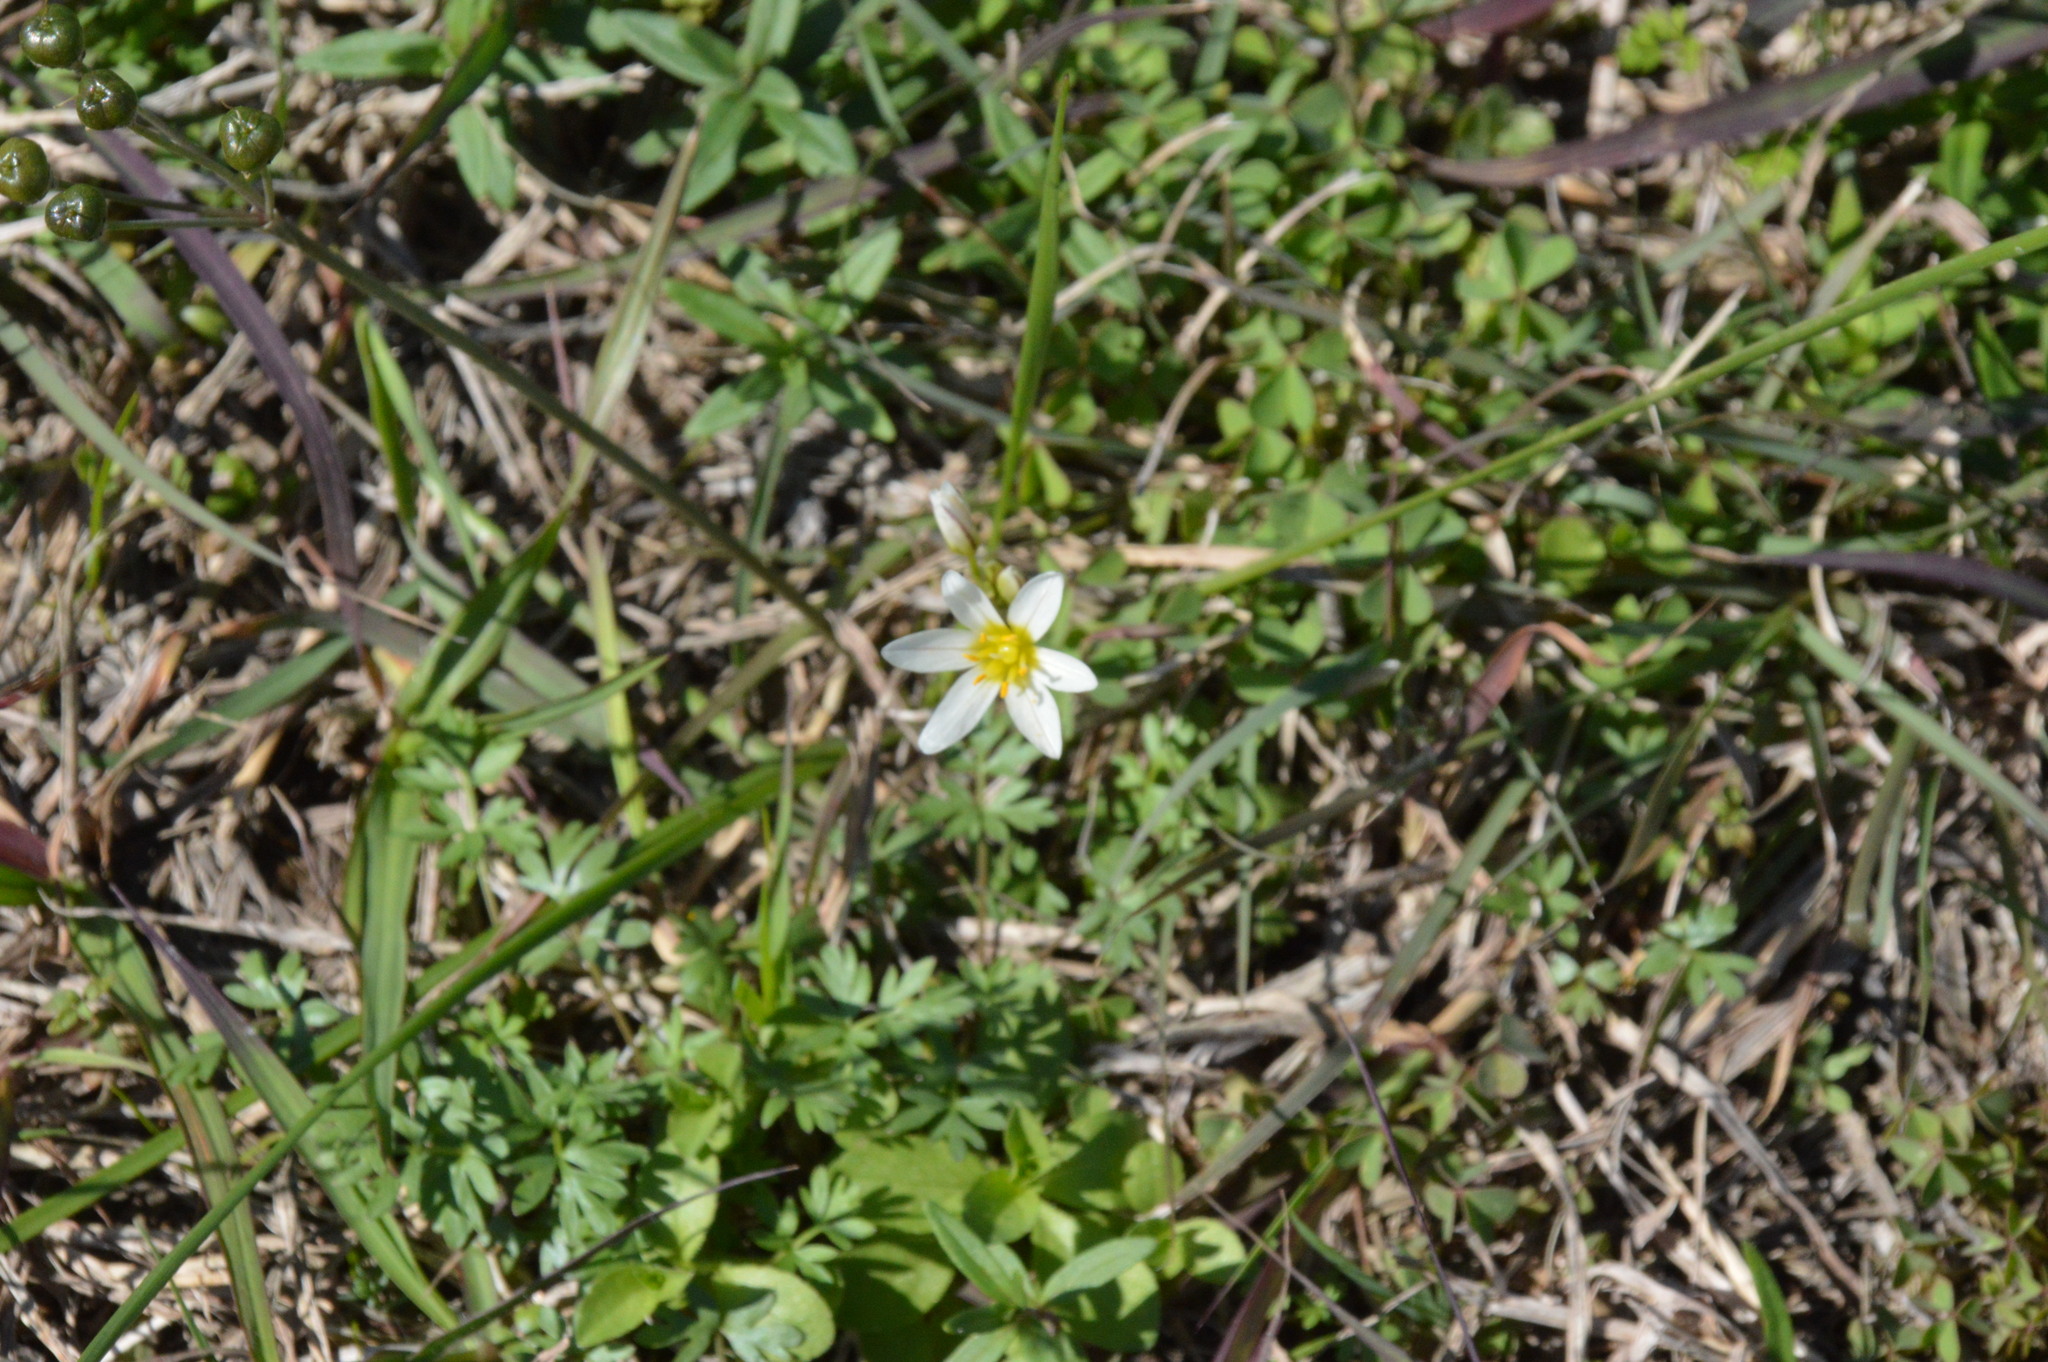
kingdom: Plantae
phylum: Tracheophyta
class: Liliopsida
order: Asparagales
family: Amaryllidaceae
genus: Nothoscordum
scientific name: Nothoscordum bivalve
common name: Crow-poison
